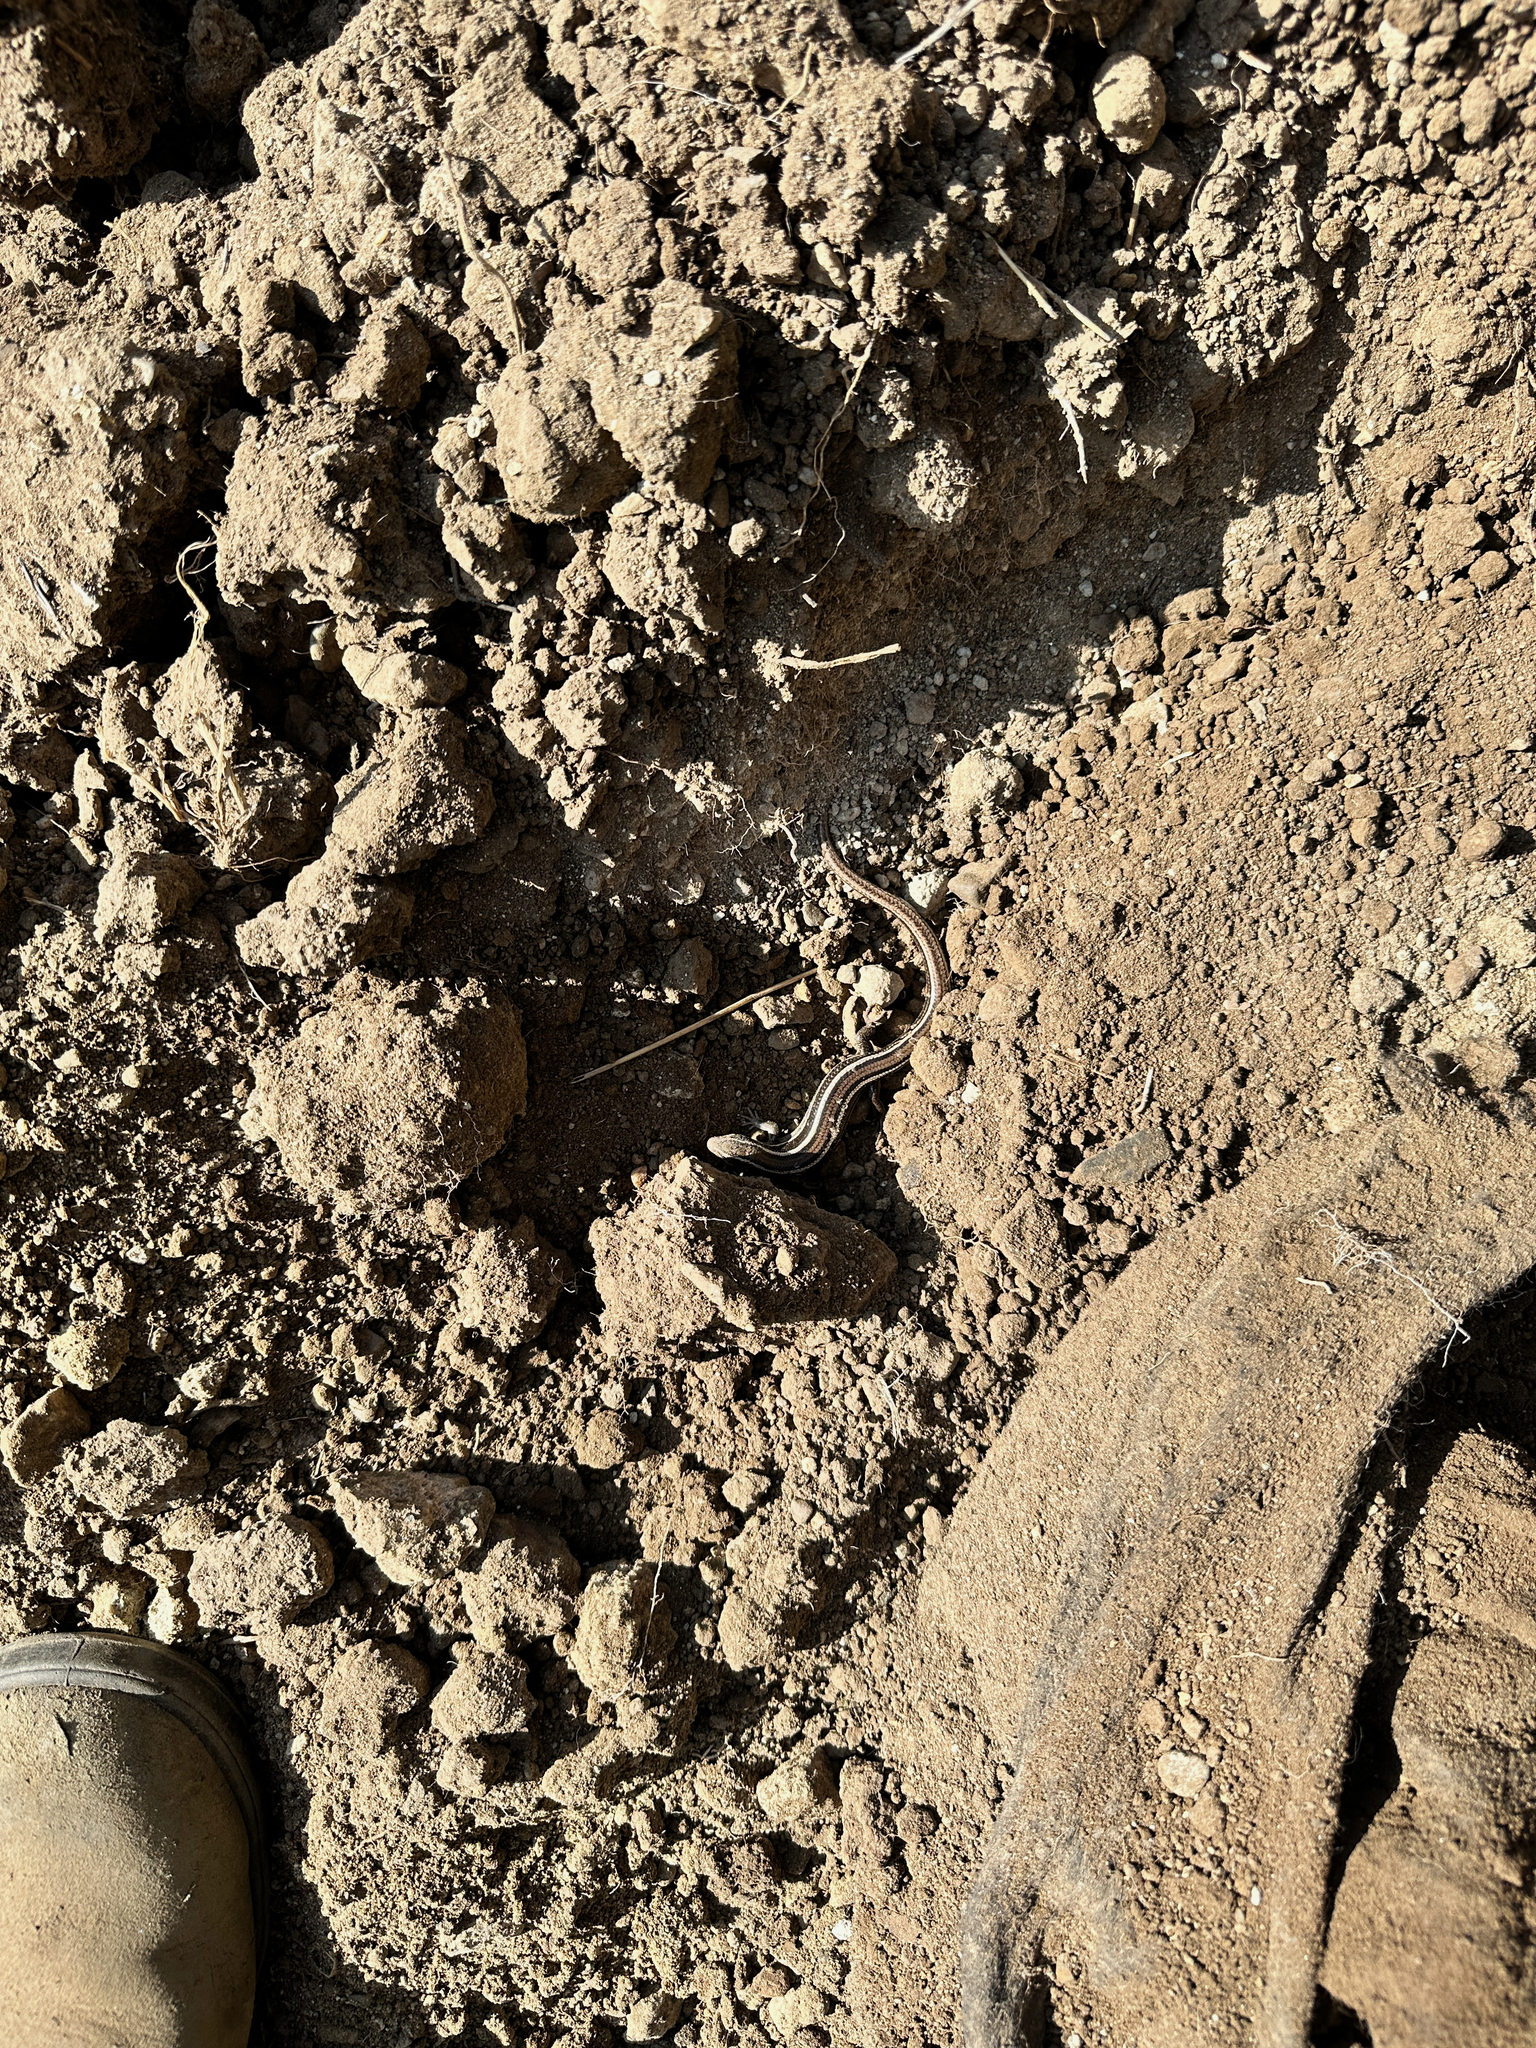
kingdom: Animalia
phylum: Chordata
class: Squamata
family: Scincidae
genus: Plestiodon
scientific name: Plestiodon skiltonianus
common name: Coronado island skink [interparietalis]
